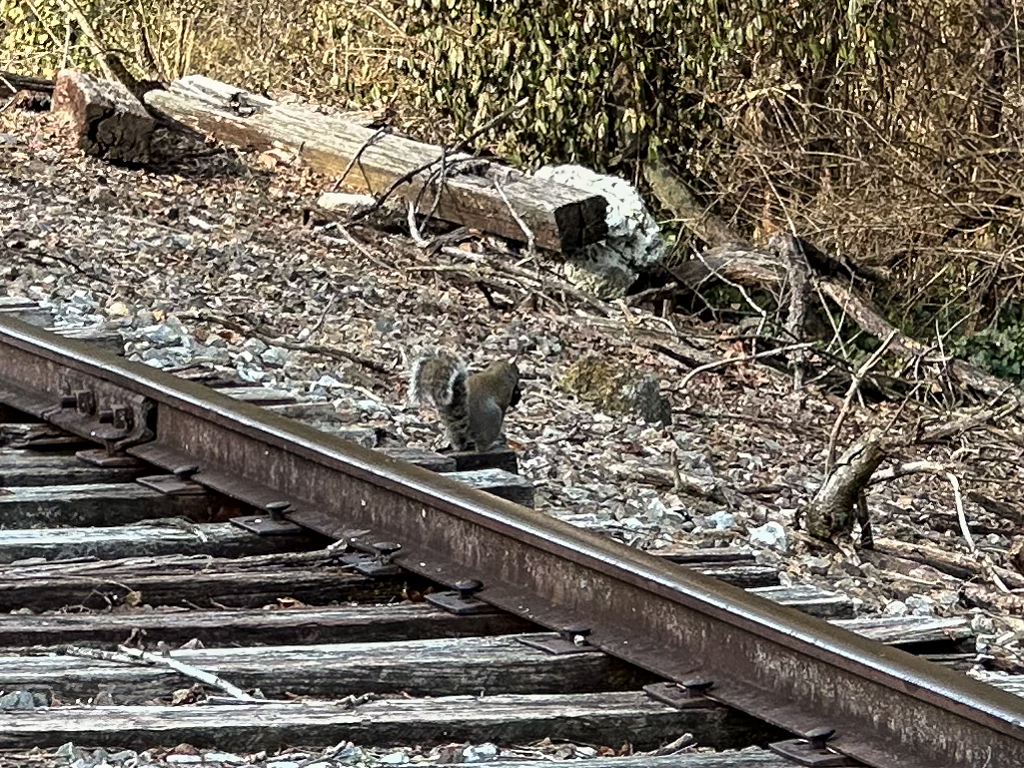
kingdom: Animalia
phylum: Chordata
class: Mammalia
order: Rodentia
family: Sciuridae
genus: Sciurus
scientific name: Sciurus carolinensis
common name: Eastern gray squirrel
